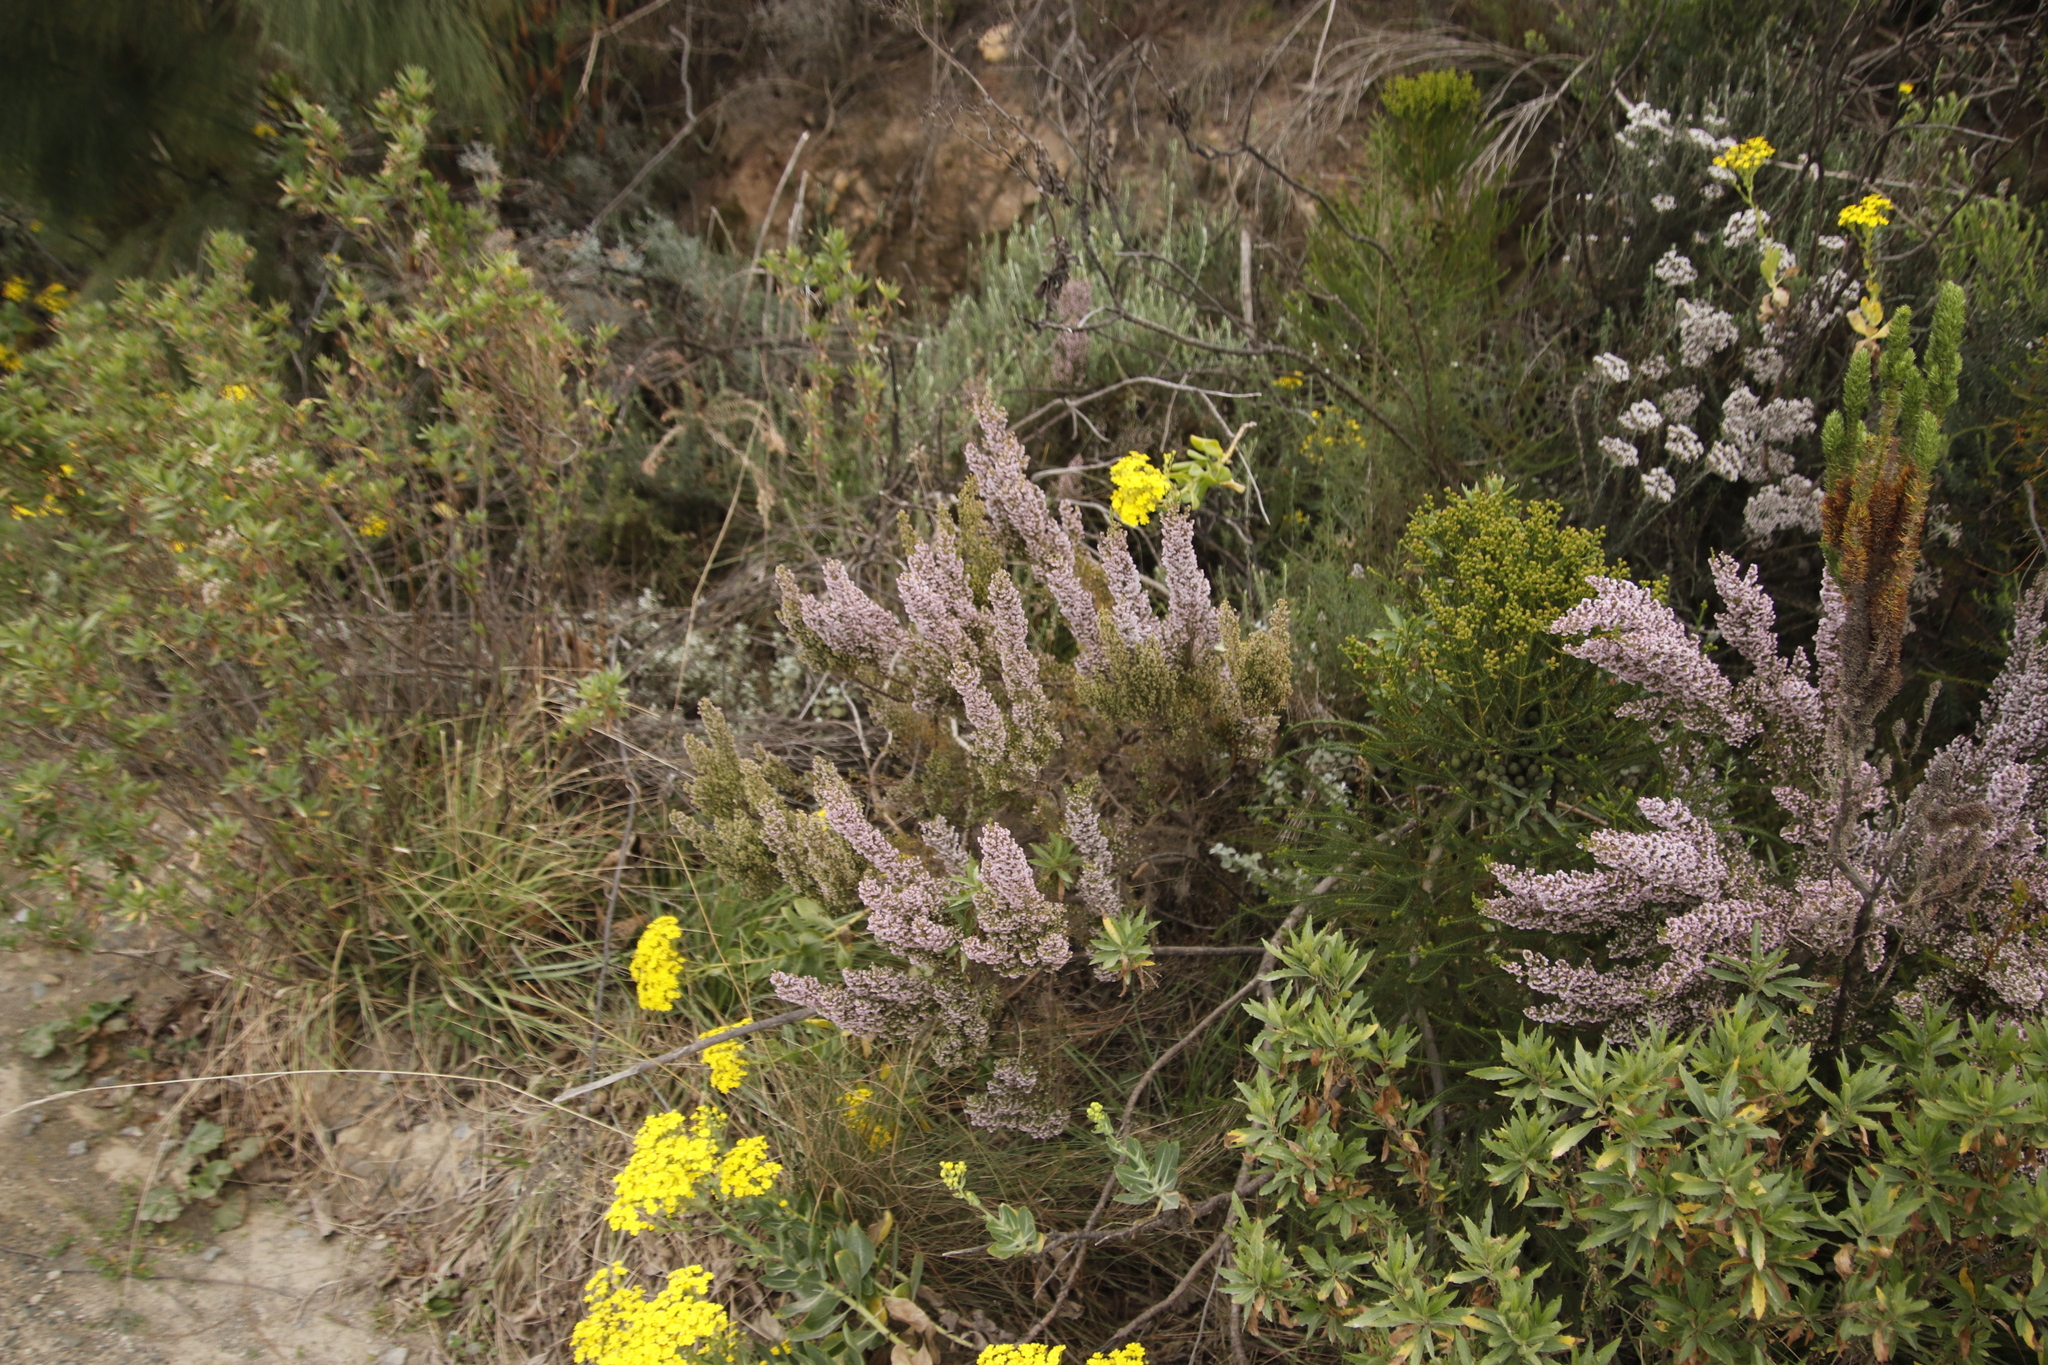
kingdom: Plantae
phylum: Tracheophyta
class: Magnoliopsida
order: Ericales
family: Ericaceae
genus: Erica
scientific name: Erica quadrangularis
